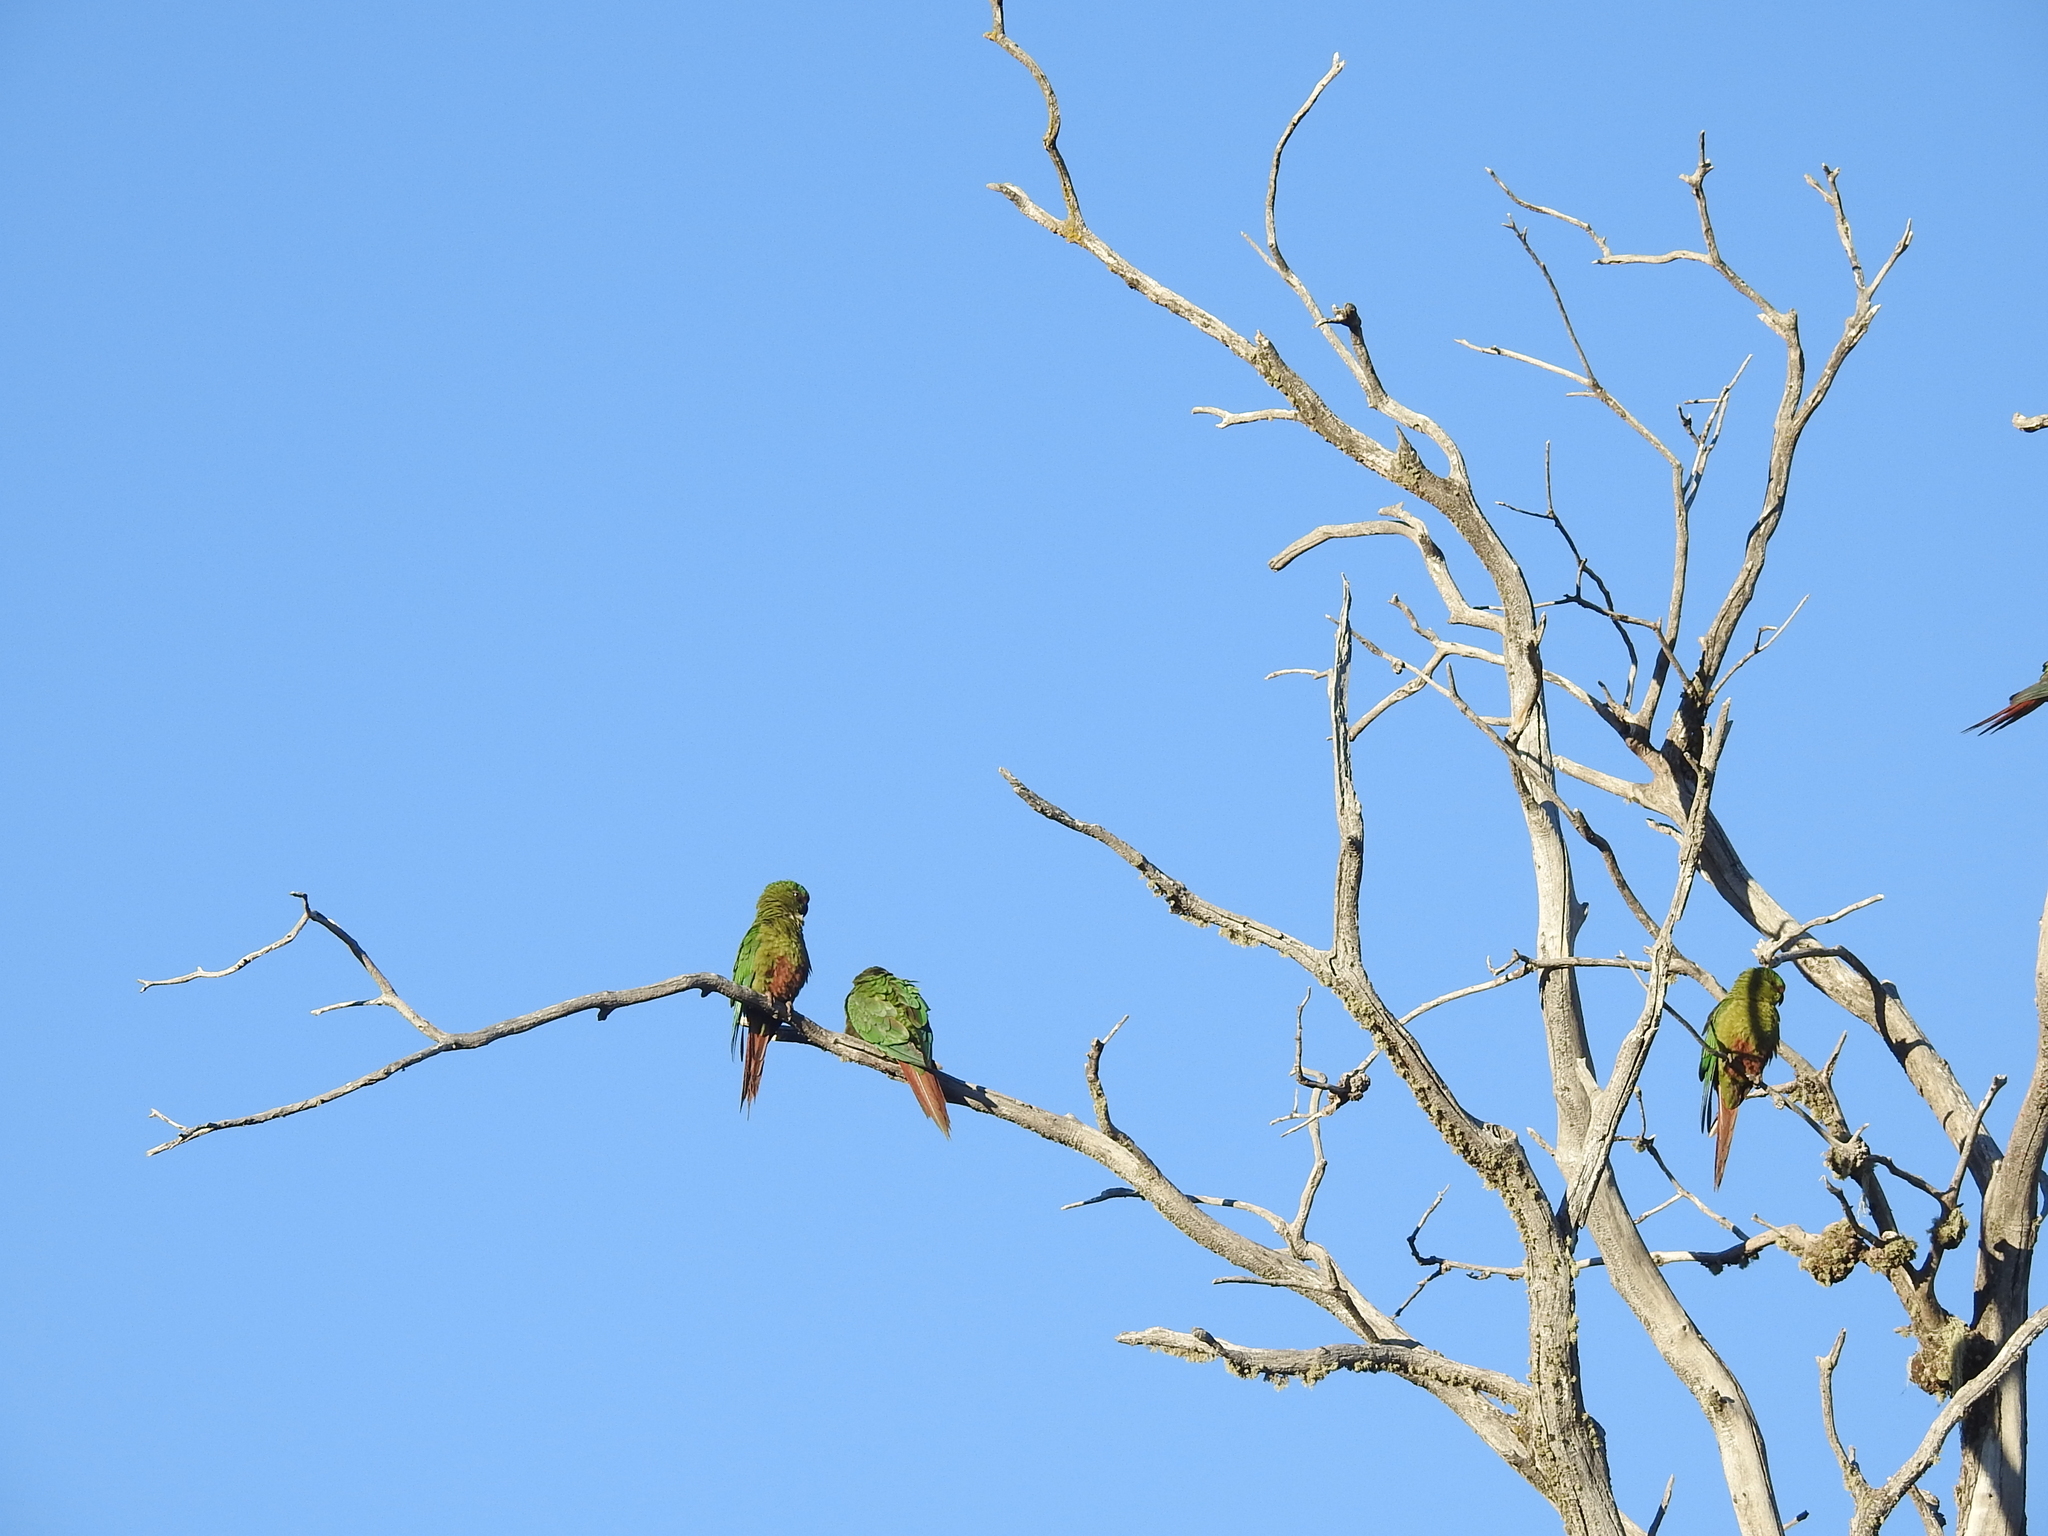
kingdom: Animalia
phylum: Chordata
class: Aves
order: Psittaciformes
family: Psittacidae
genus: Enicognathus
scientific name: Enicognathus ferrugineus
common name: Austral parakeet
